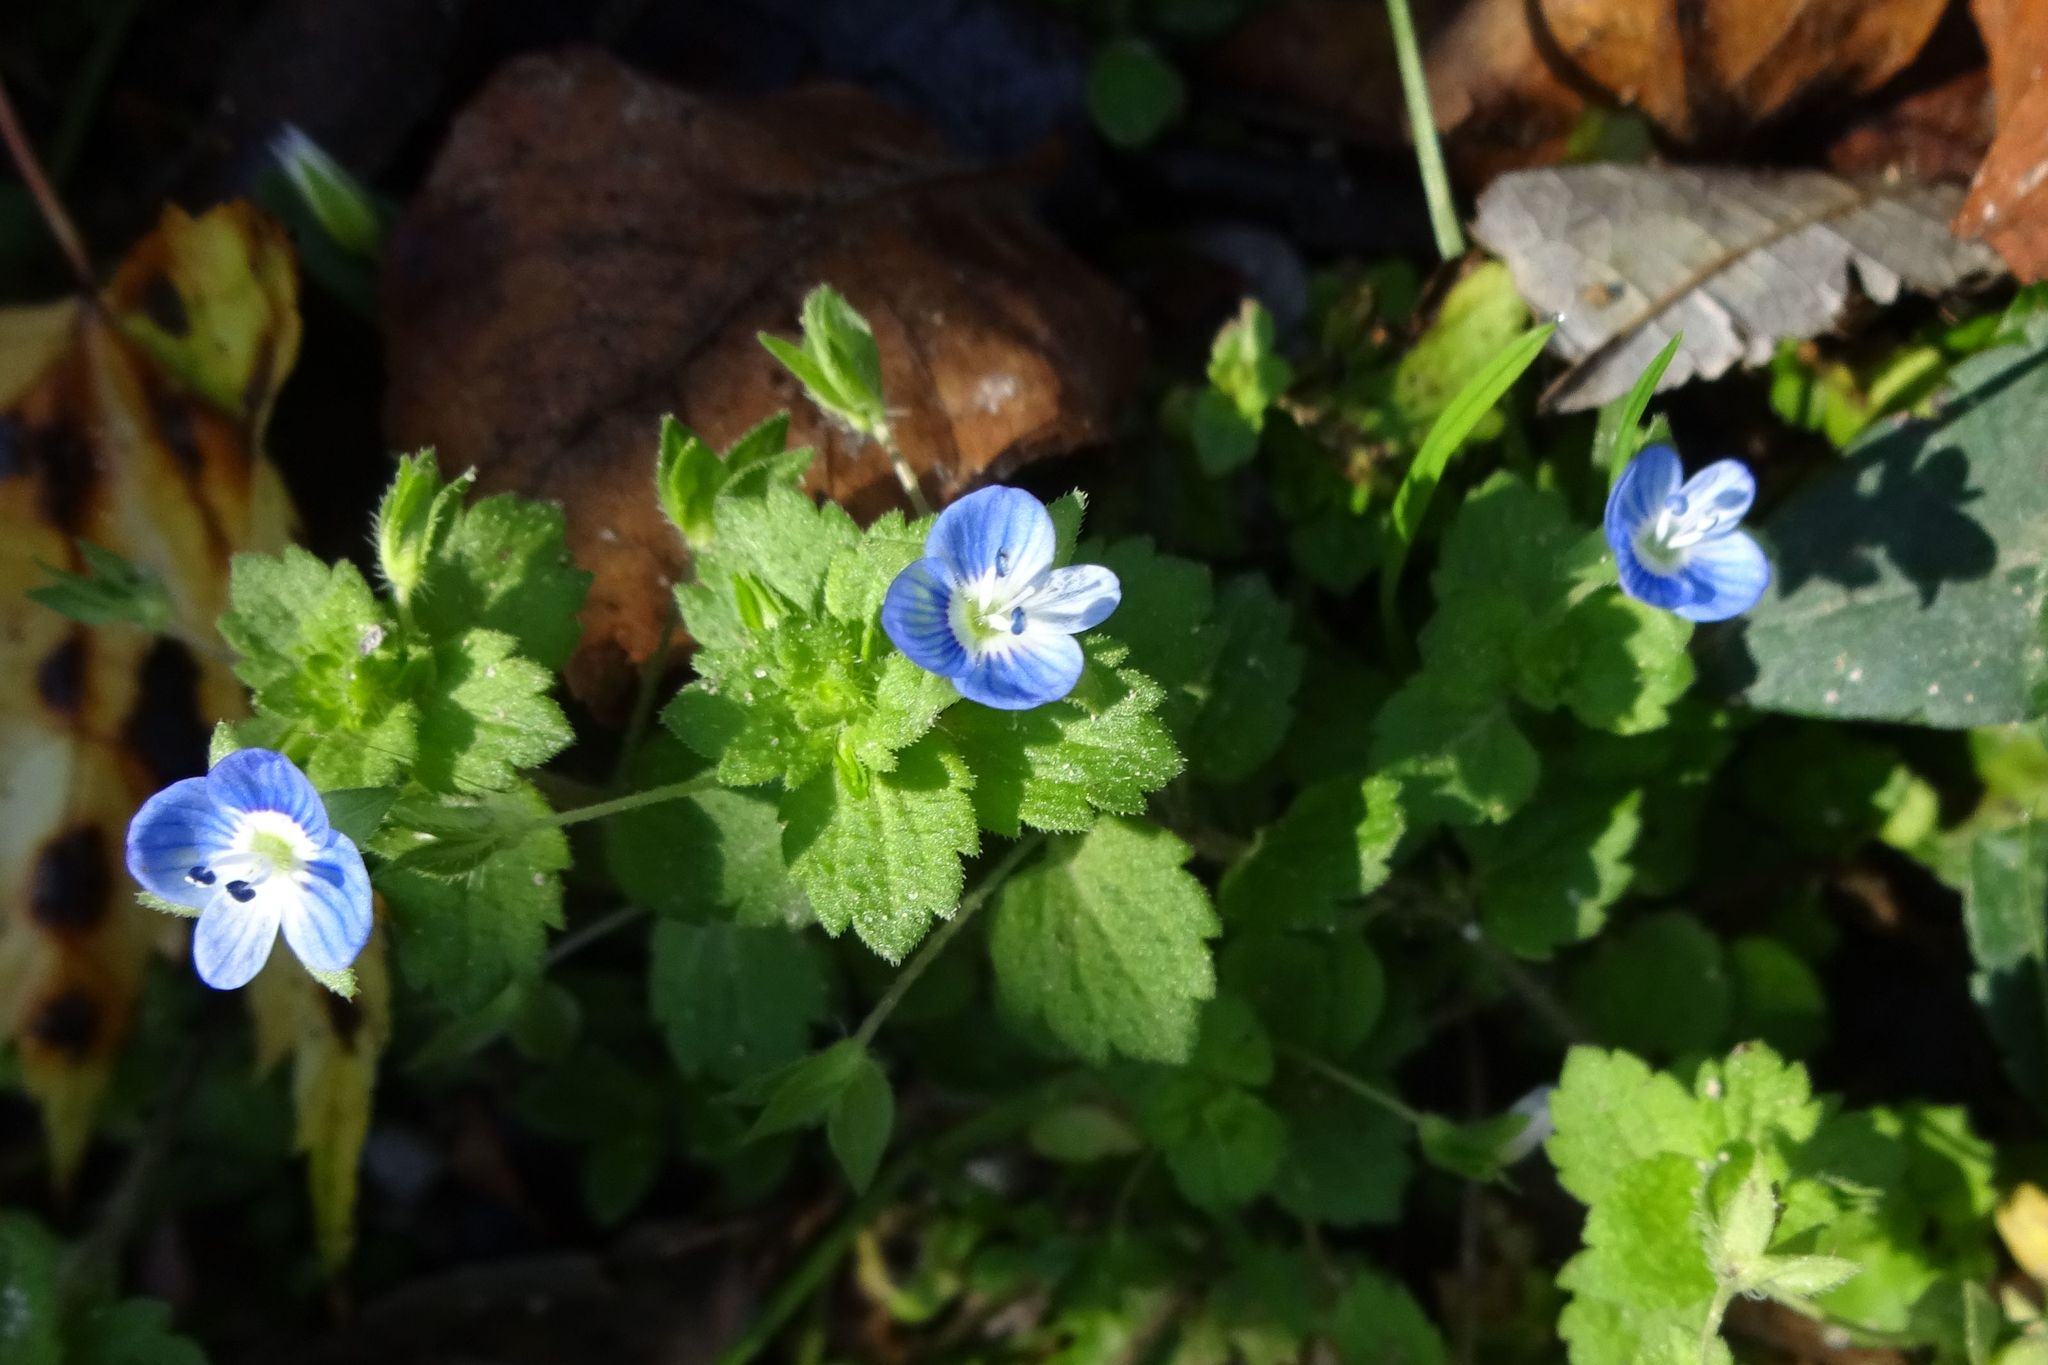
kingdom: Plantae
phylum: Tracheophyta
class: Magnoliopsida
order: Lamiales
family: Plantaginaceae
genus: Veronica
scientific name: Veronica persica
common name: Common field-speedwell
